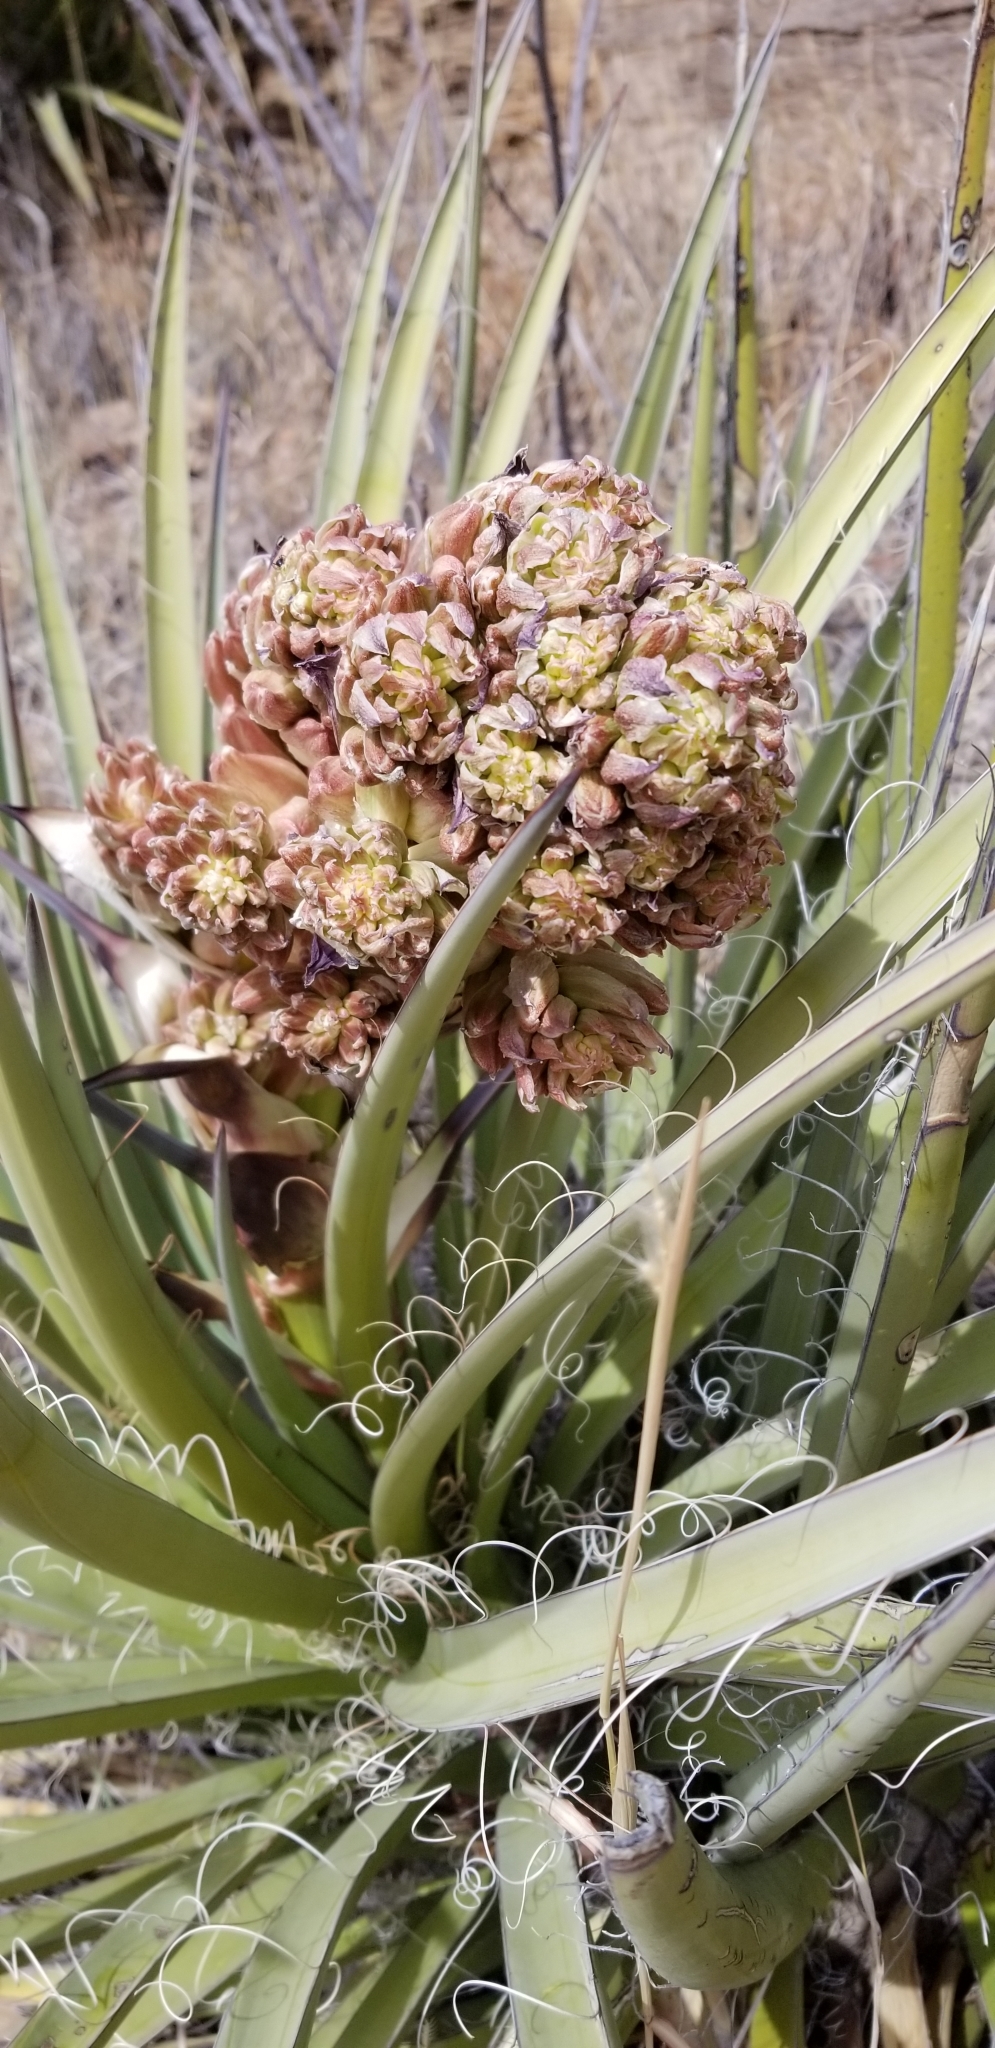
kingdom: Plantae
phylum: Tracheophyta
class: Liliopsida
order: Asparagales
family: Asparagaceae
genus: Yucca
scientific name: Yucca baccata
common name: Banana yucca
